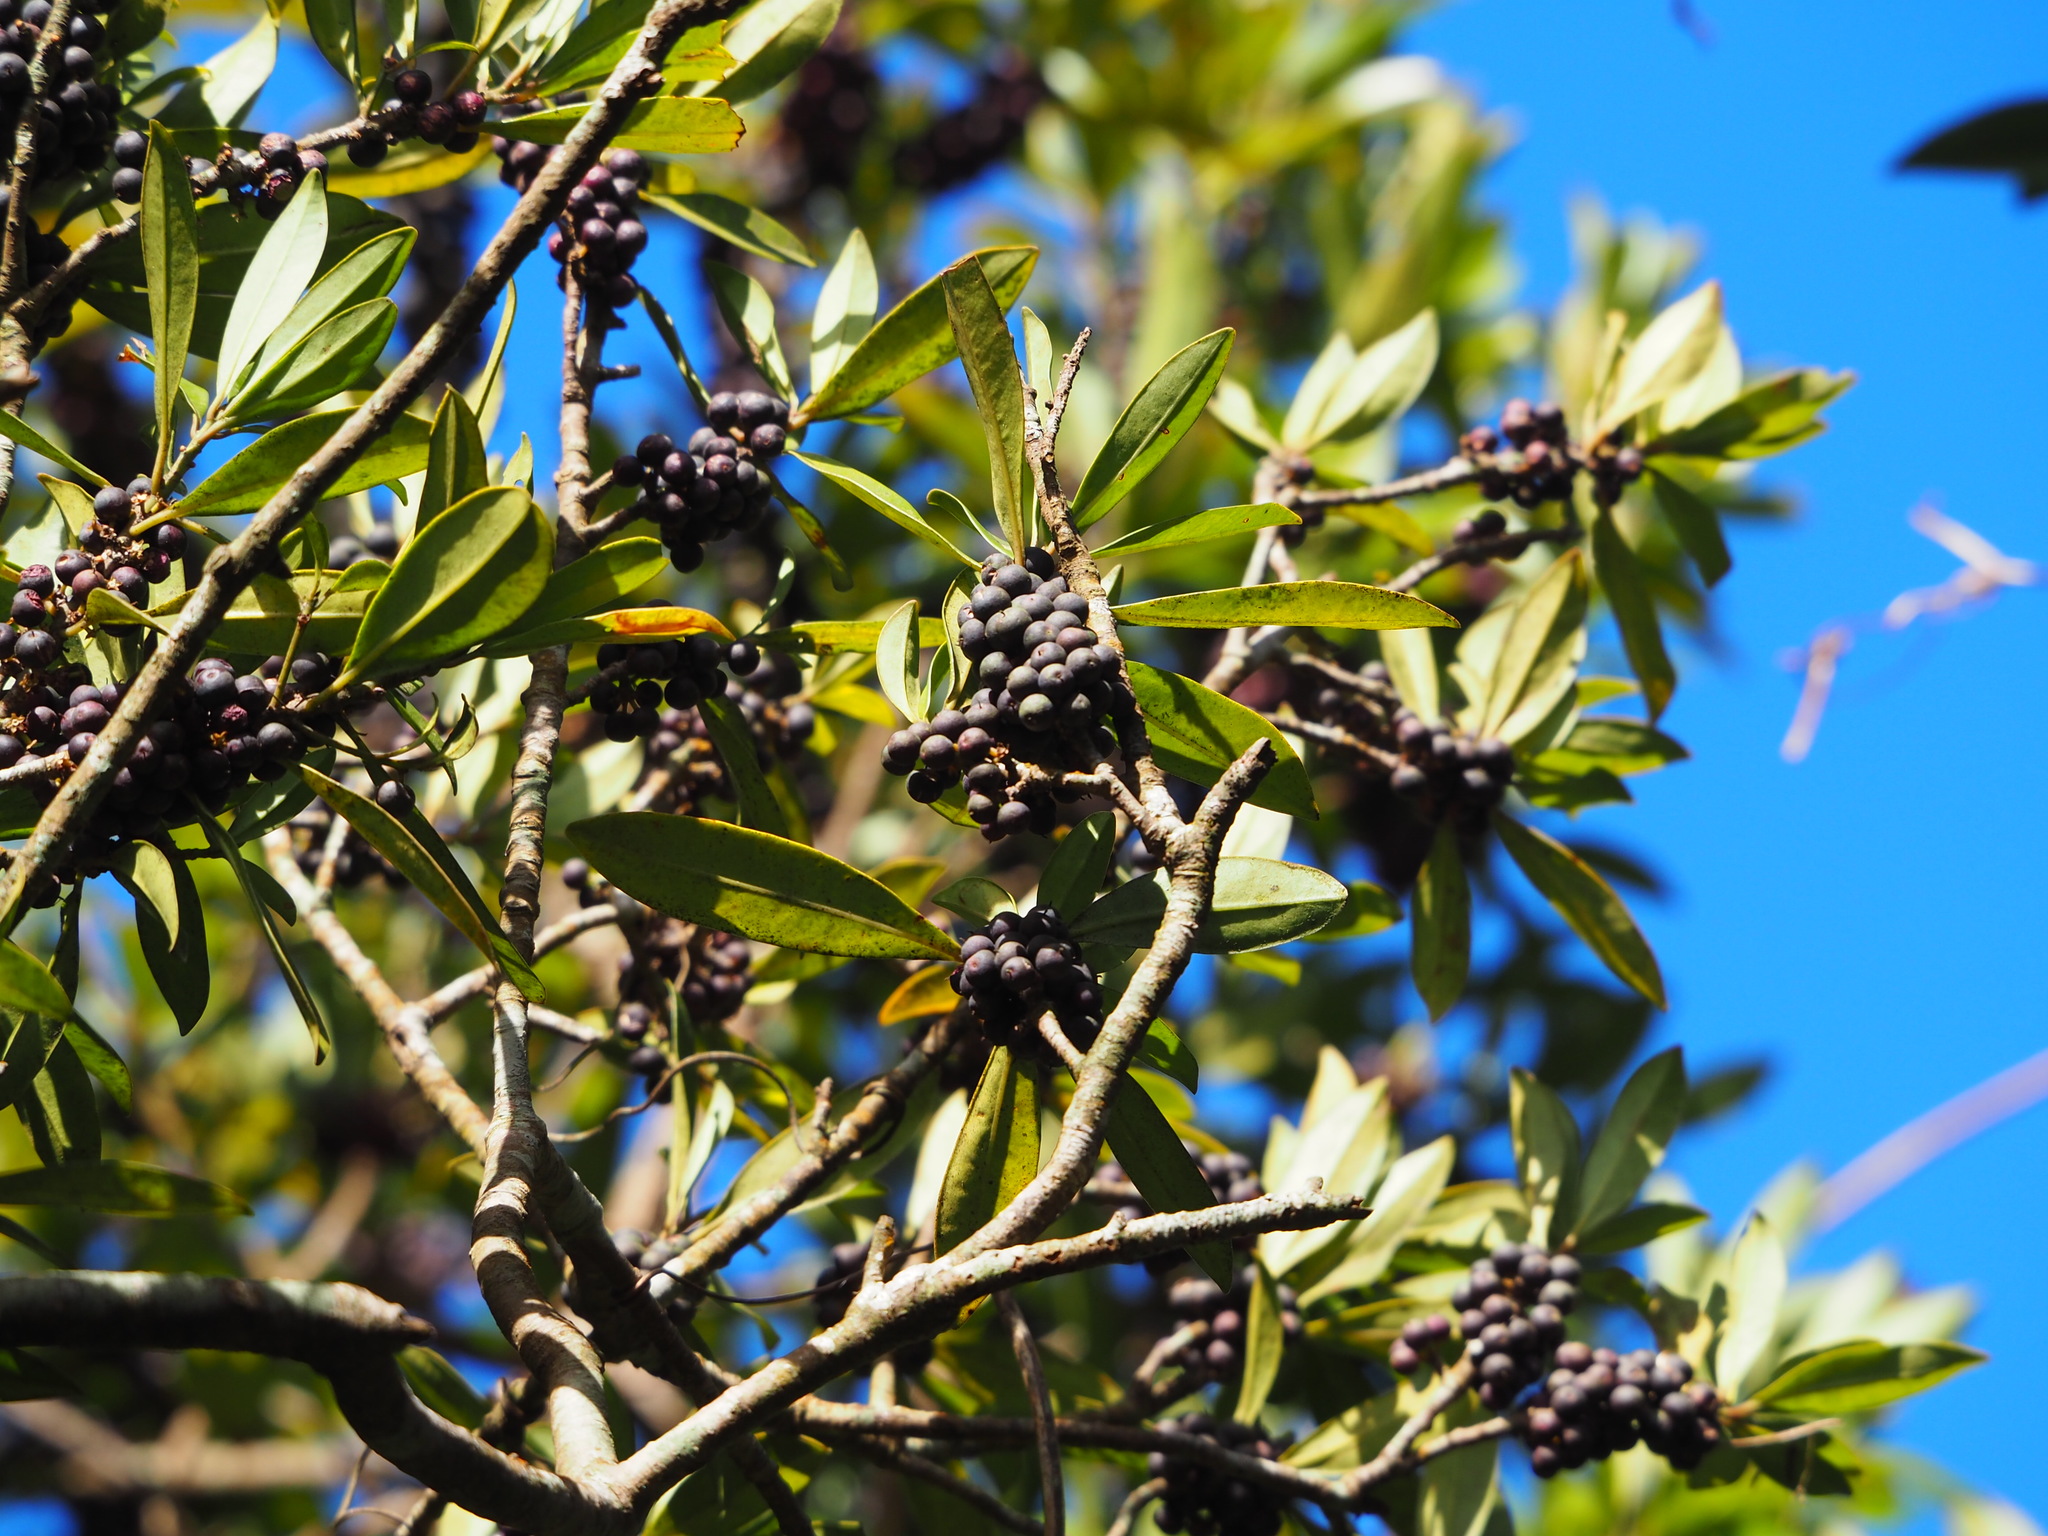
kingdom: Plantae
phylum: Tracheophyta
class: Magnoliopsida
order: Ericales
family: Primulaceae
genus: Myrsine
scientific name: Myrsine seguinii
